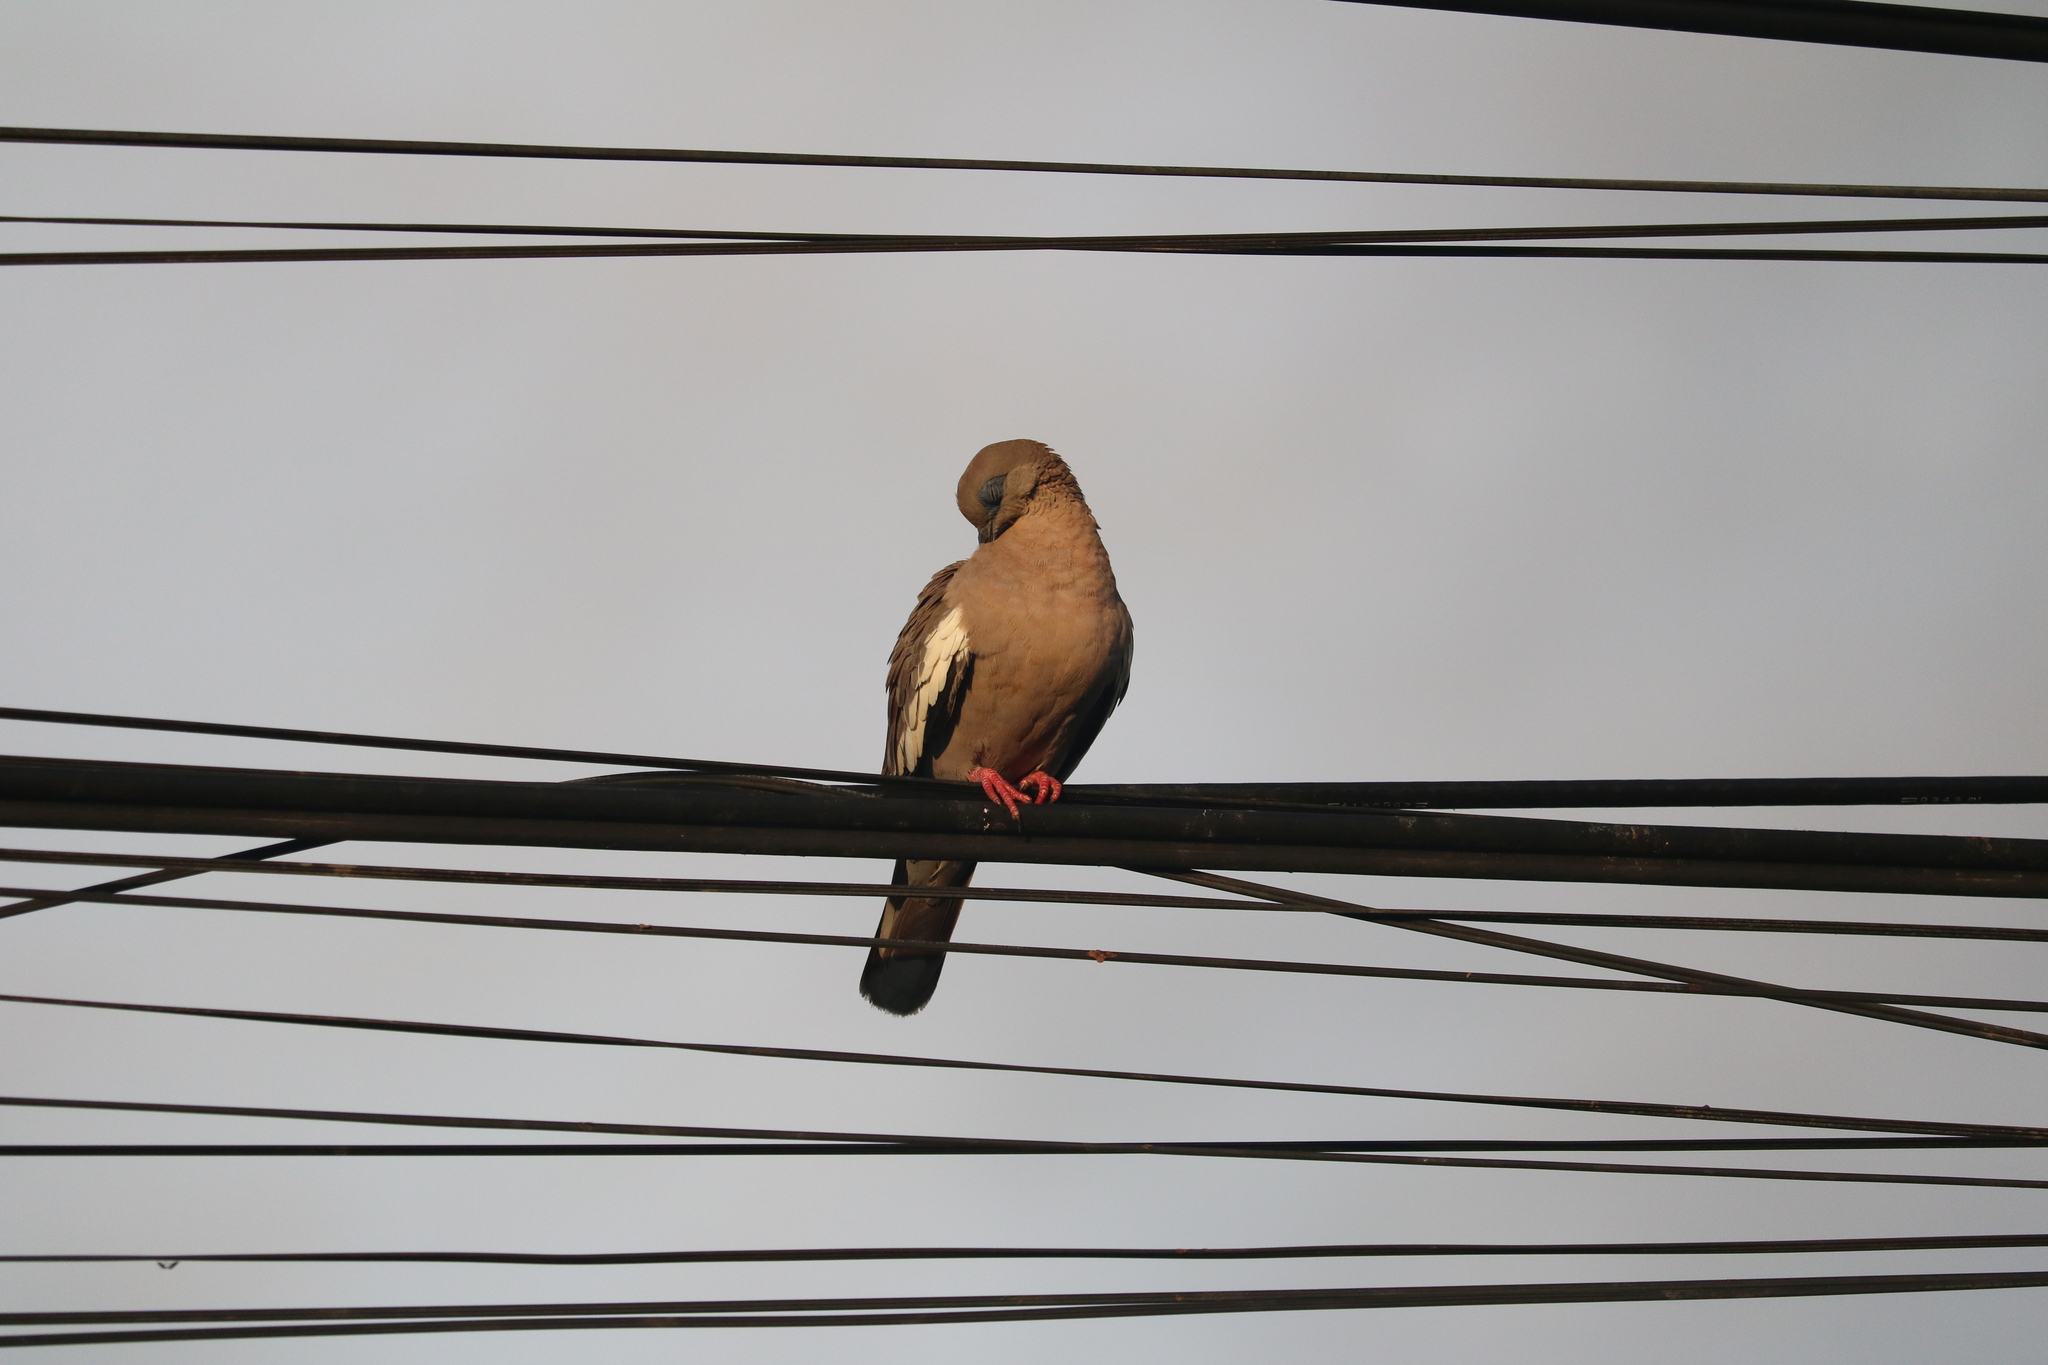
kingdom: Animalia
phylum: Chordata
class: Aves
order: Columbiformes
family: Columbidae
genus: Zenaida
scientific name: Zenaida meloda
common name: West peruvian dove
